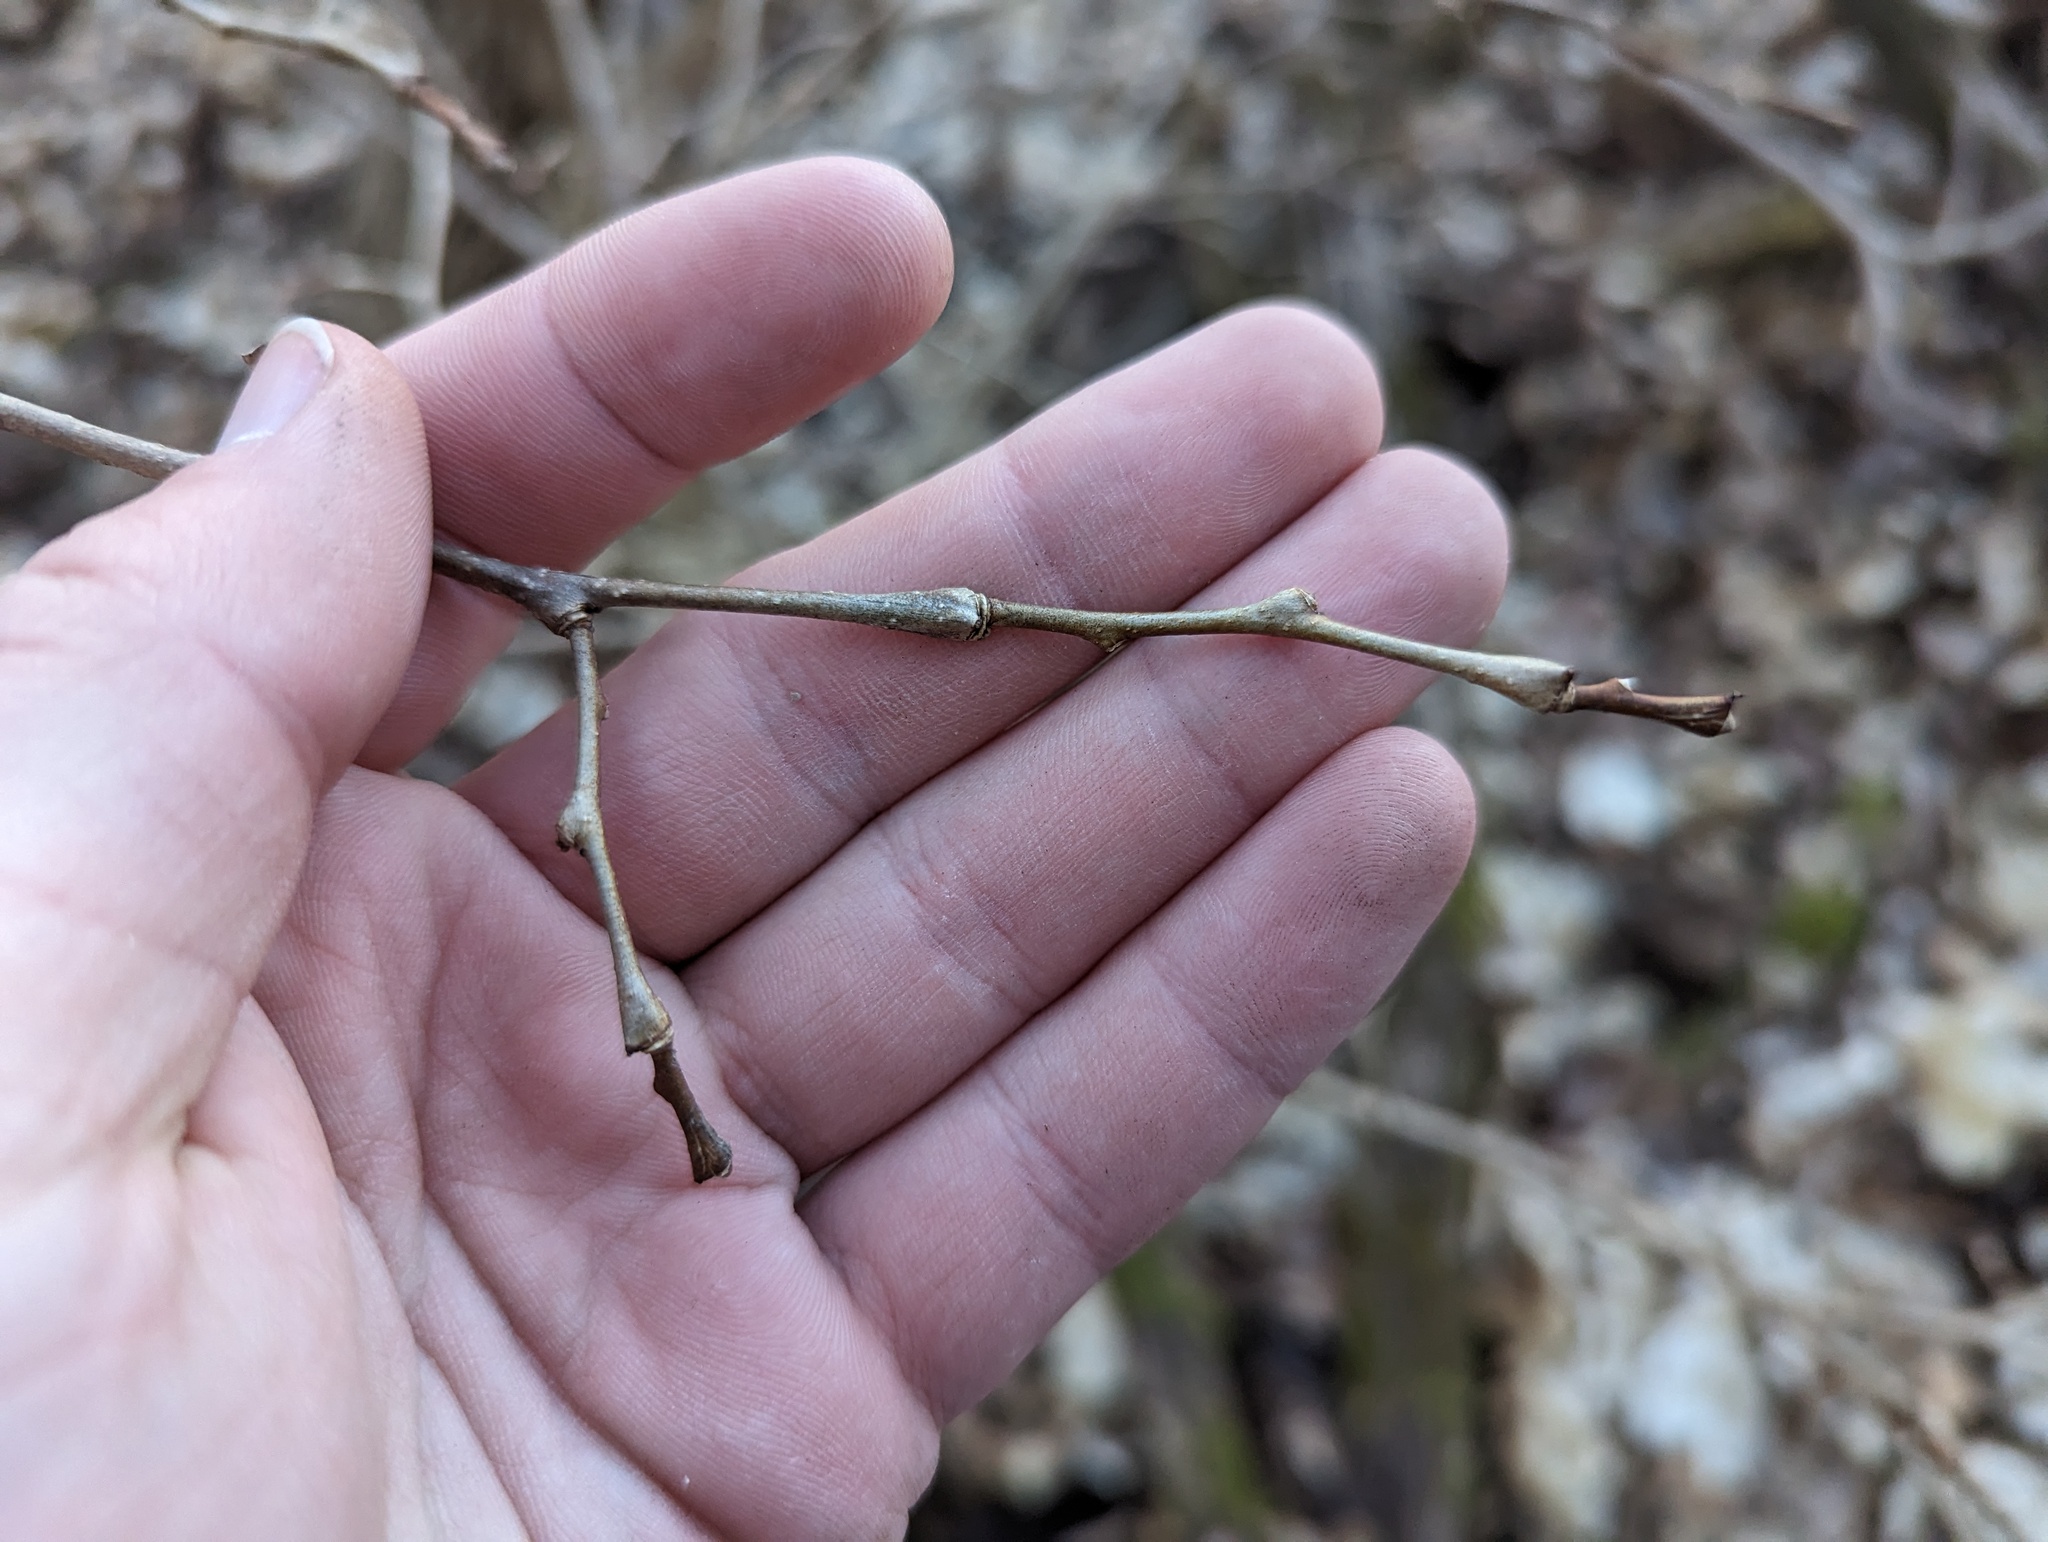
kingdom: Plantae
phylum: Tracheophyta
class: Magnoliopsida
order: Malvales
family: Thymelaeaceae
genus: Dirca
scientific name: Dirca palustris
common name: Leatherwood
